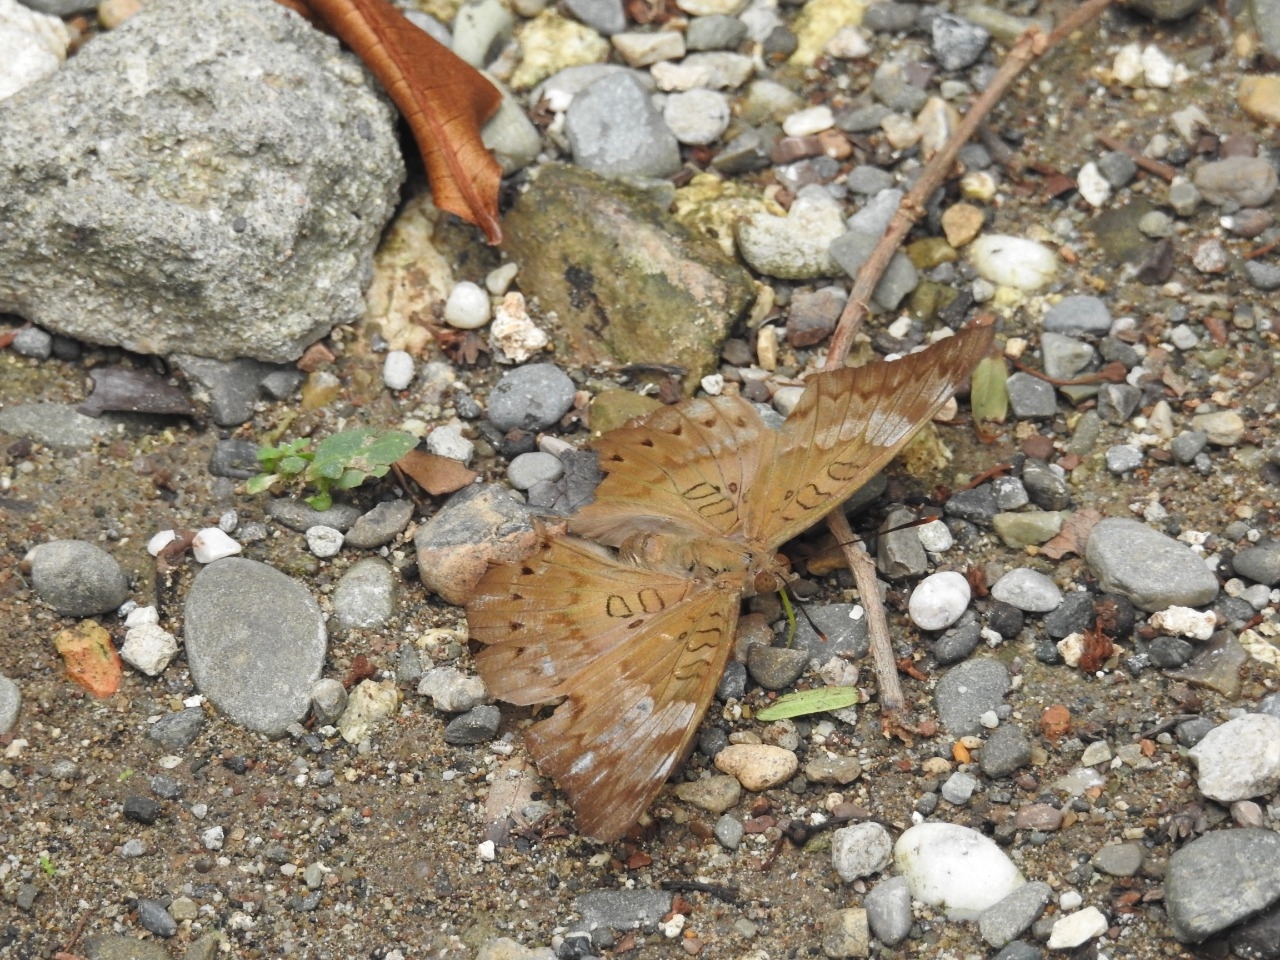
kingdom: Animalia
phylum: Arthropoda
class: Insecta
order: Lepidoptera
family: Nymphalidae
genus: Euthalia
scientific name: Euthalia aconthea
